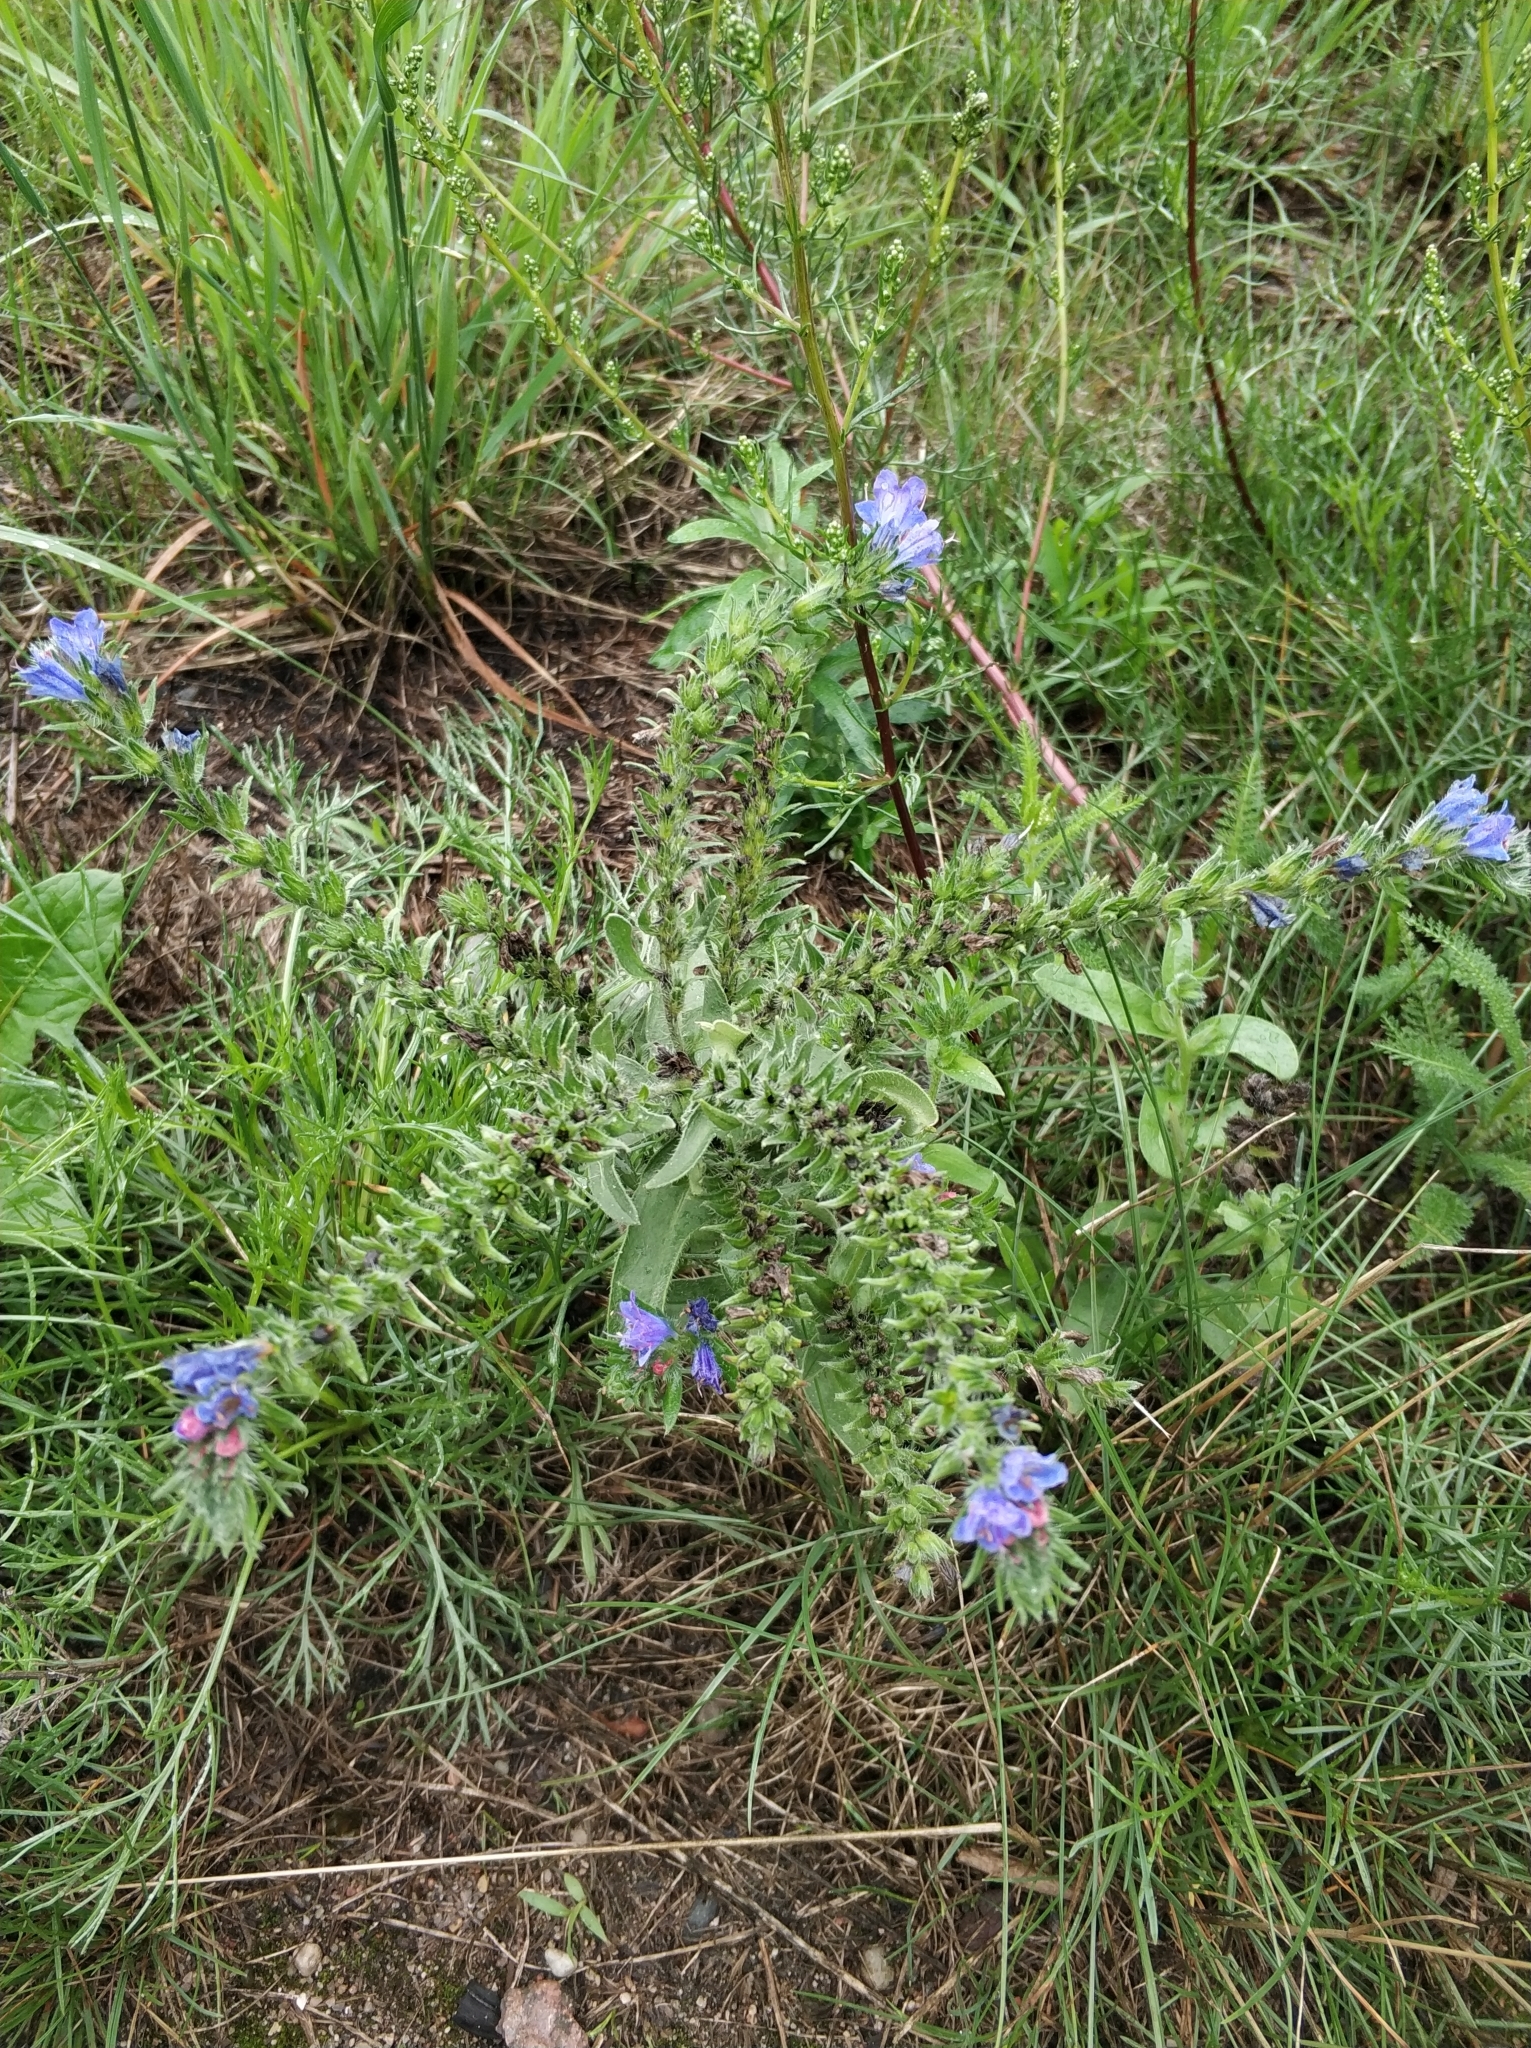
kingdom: Plantae
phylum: Tracheophyta
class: Magnoliopsida
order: Boraginales
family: Boraginaceae
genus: Echium
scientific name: Echium vulgare
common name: Common viper's bugloss
